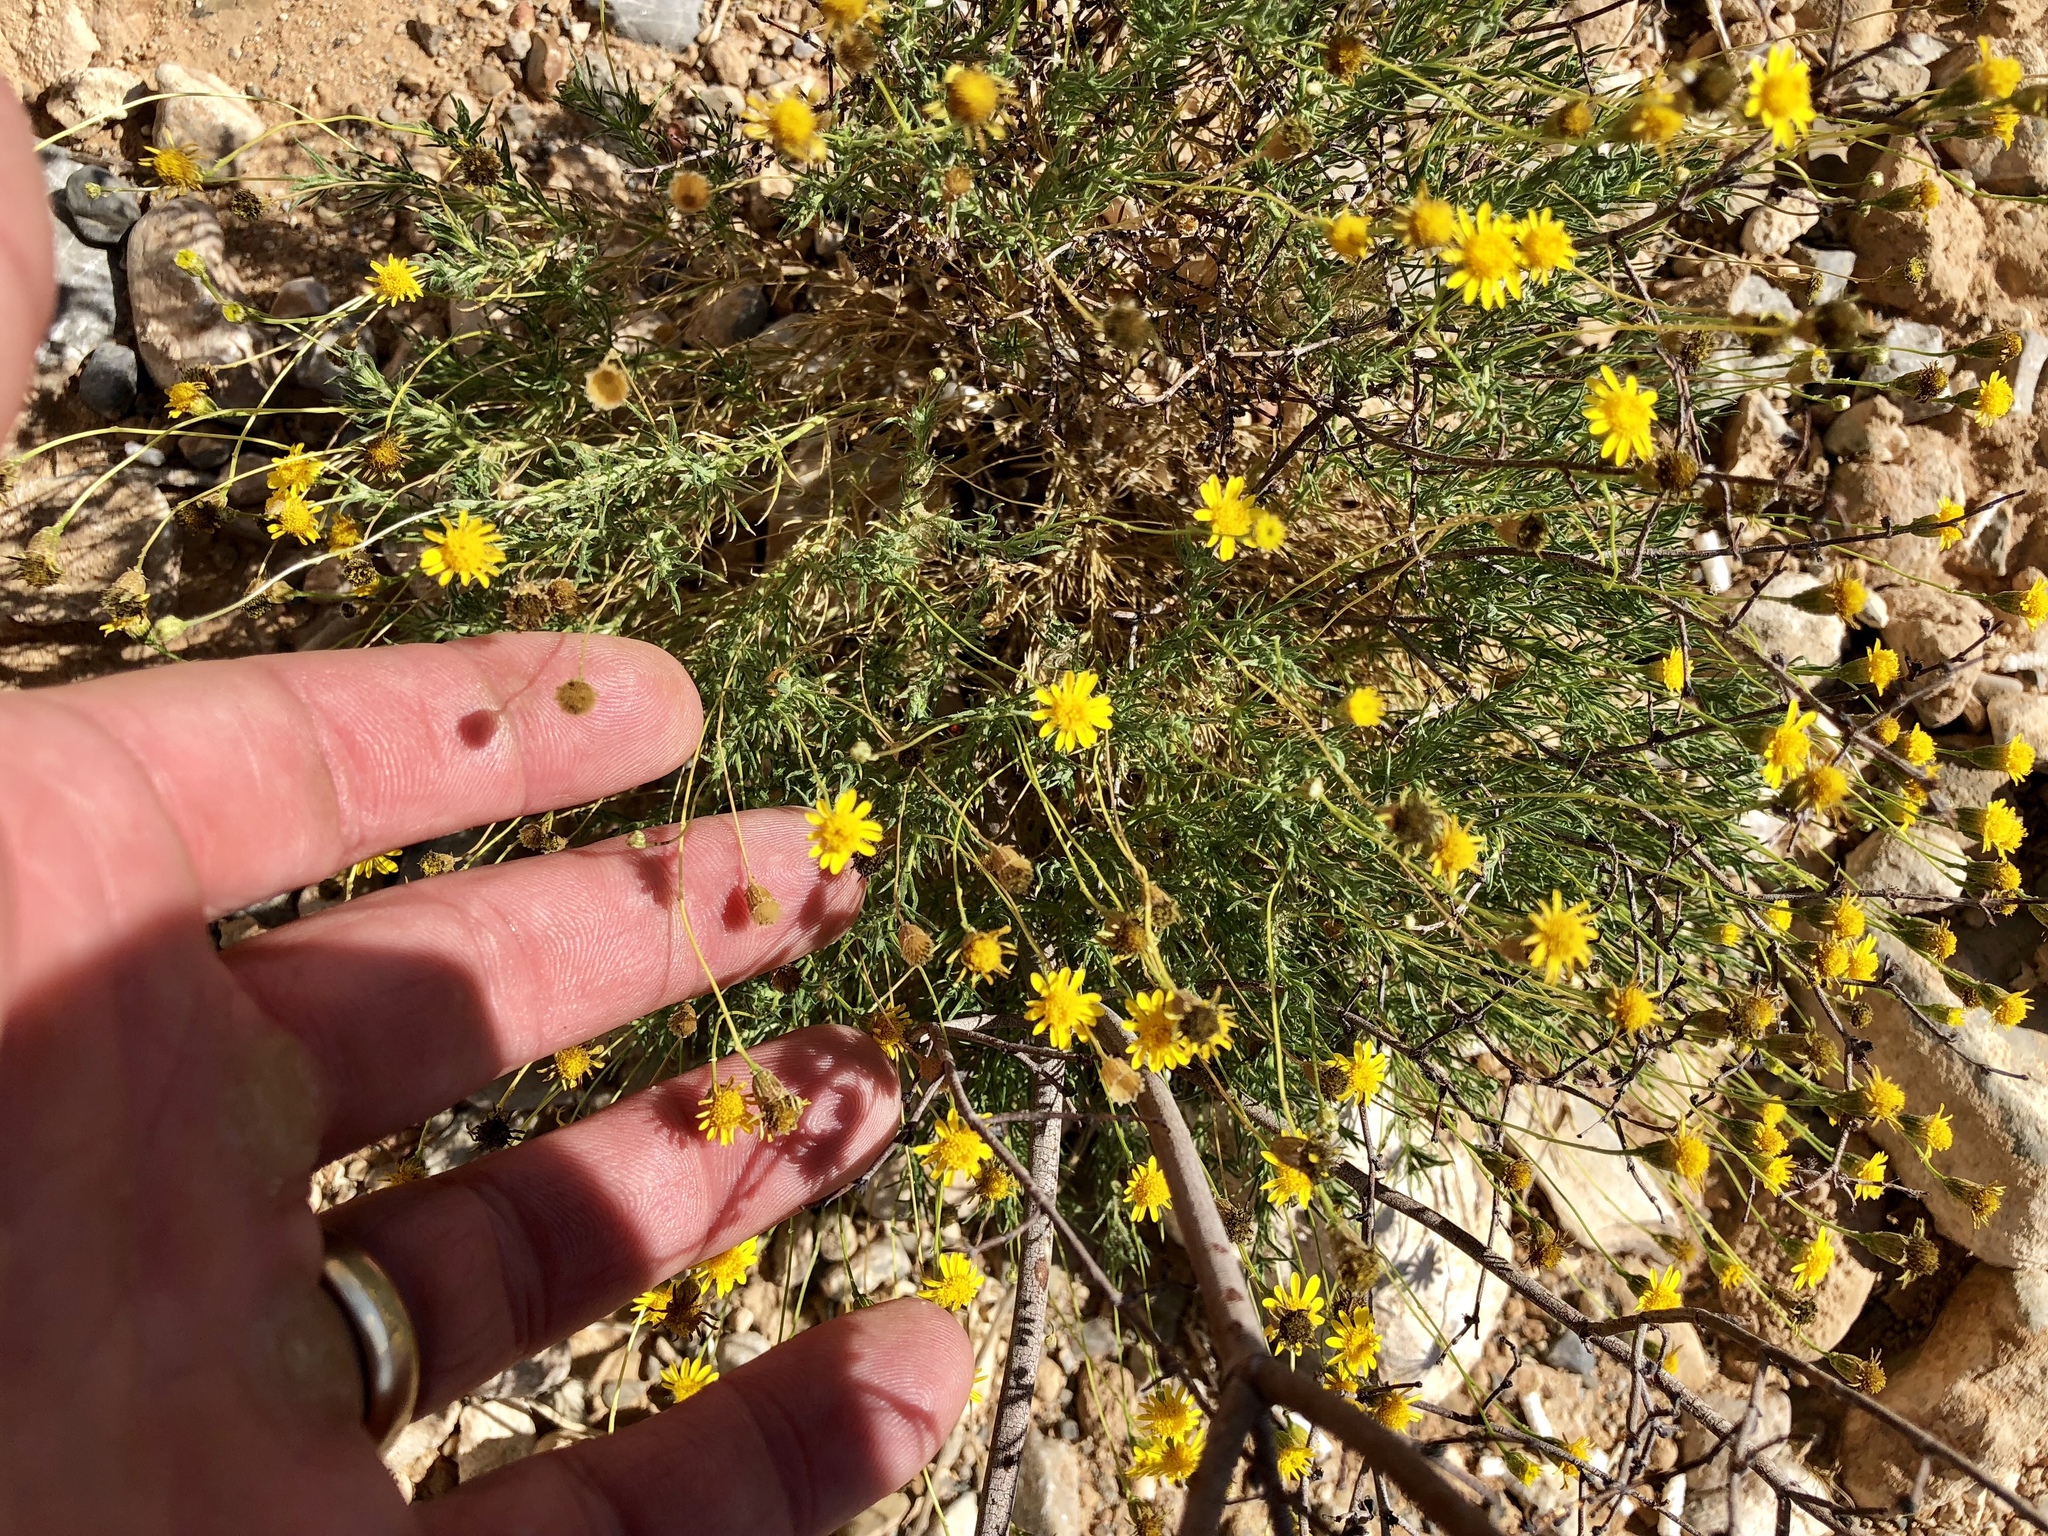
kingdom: Plantae
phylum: Tracheophyta
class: Magnoliopsida
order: Asterales
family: Asteraceae
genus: Thymophylla
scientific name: Thymophylla pentachaeta
